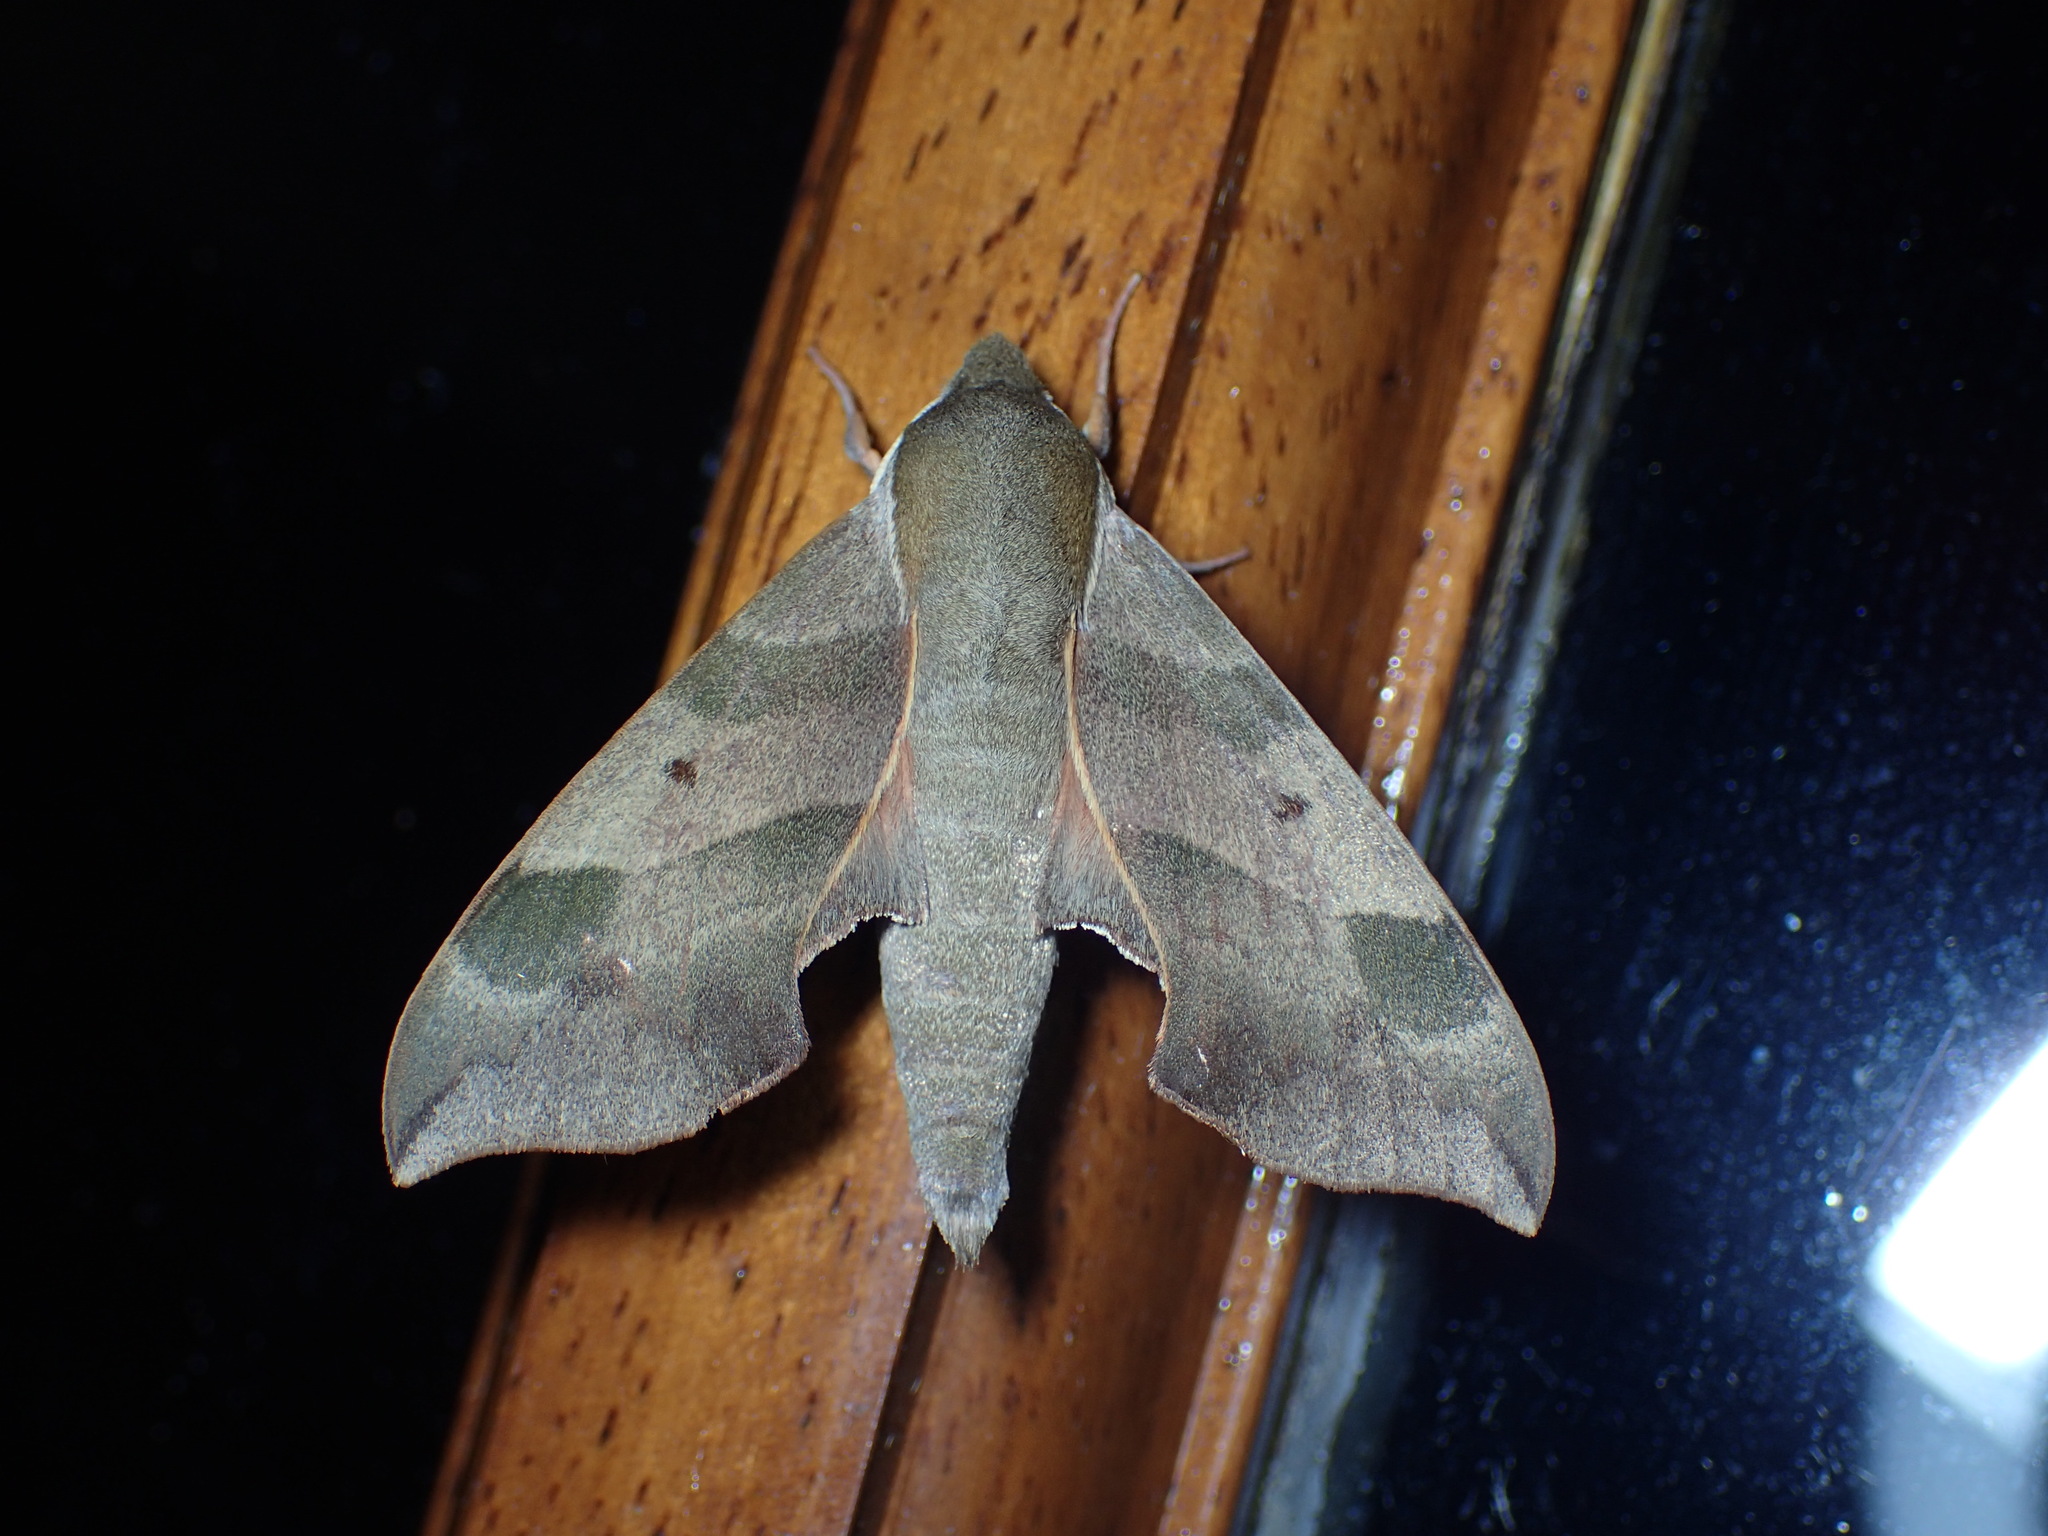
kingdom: Animalia
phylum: Arthropoda
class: Insecta
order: Lepidoptera
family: Sphingidae
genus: Darapsa
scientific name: Darapsa myron
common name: Hog sphinx
